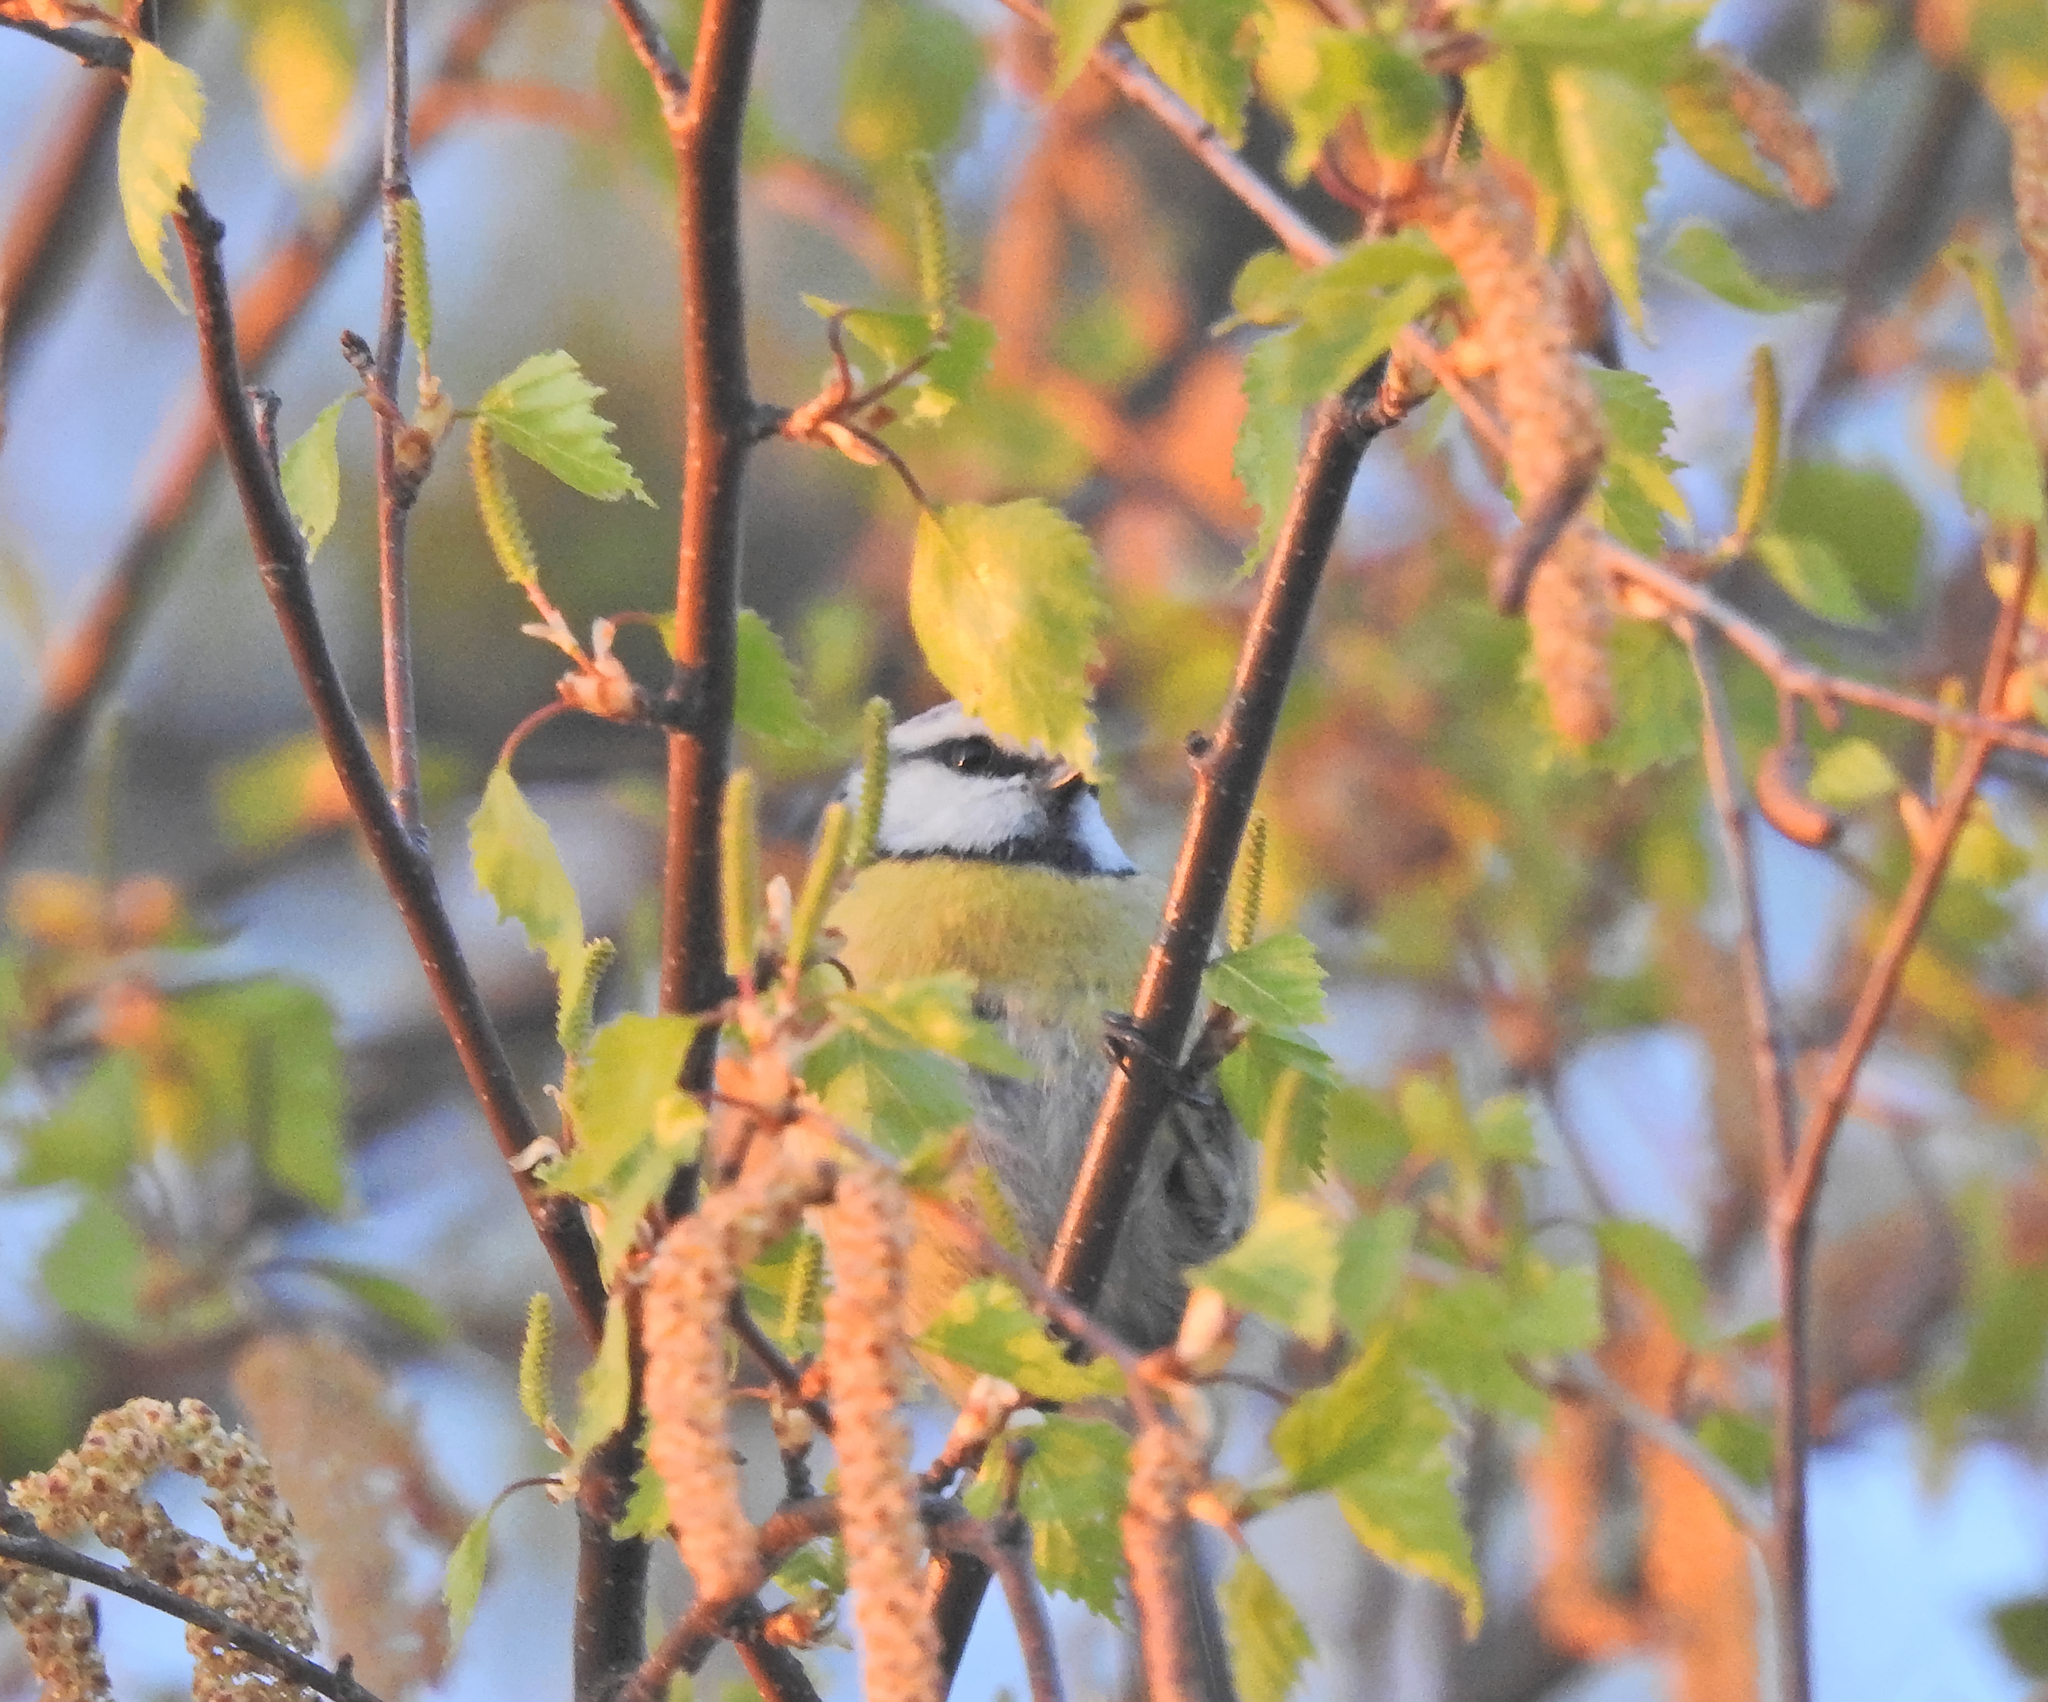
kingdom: Animalia
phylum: Chordata
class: Aves
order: Passeriformes
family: Paridae
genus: Cyanistes
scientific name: Cyanistes caeruleus
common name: Eurasian blue tit
